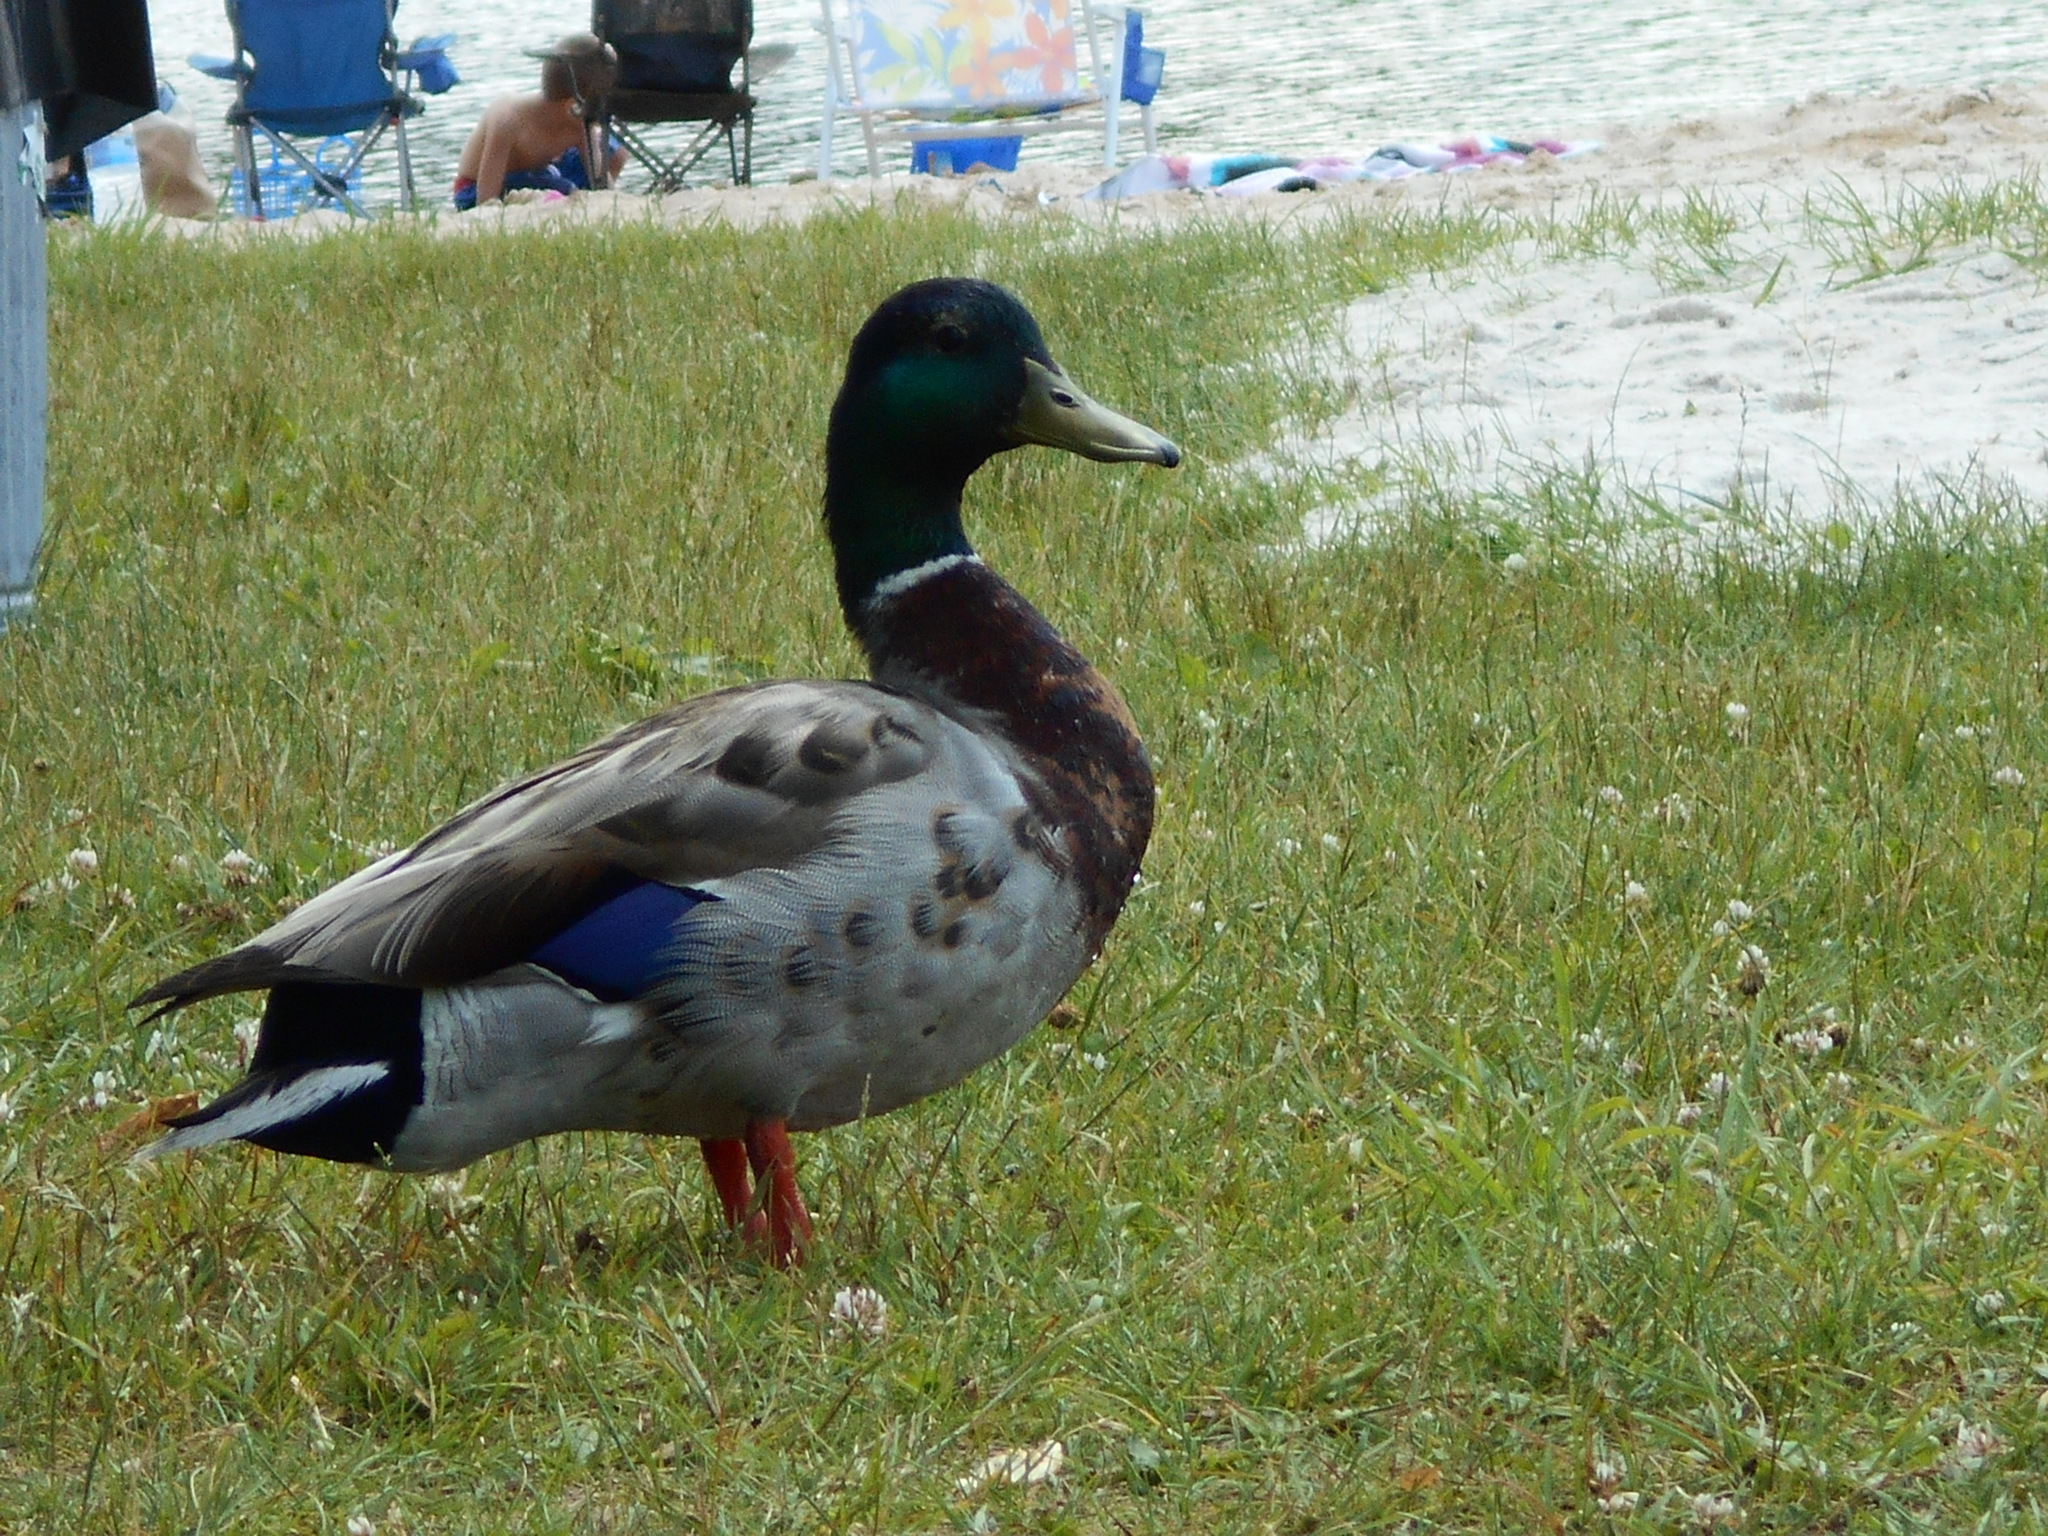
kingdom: Animalia
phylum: Chordata
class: Aves
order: Anseriformes
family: Anatidae
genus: Anas
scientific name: Anas platyrhynchos
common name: Mallard
